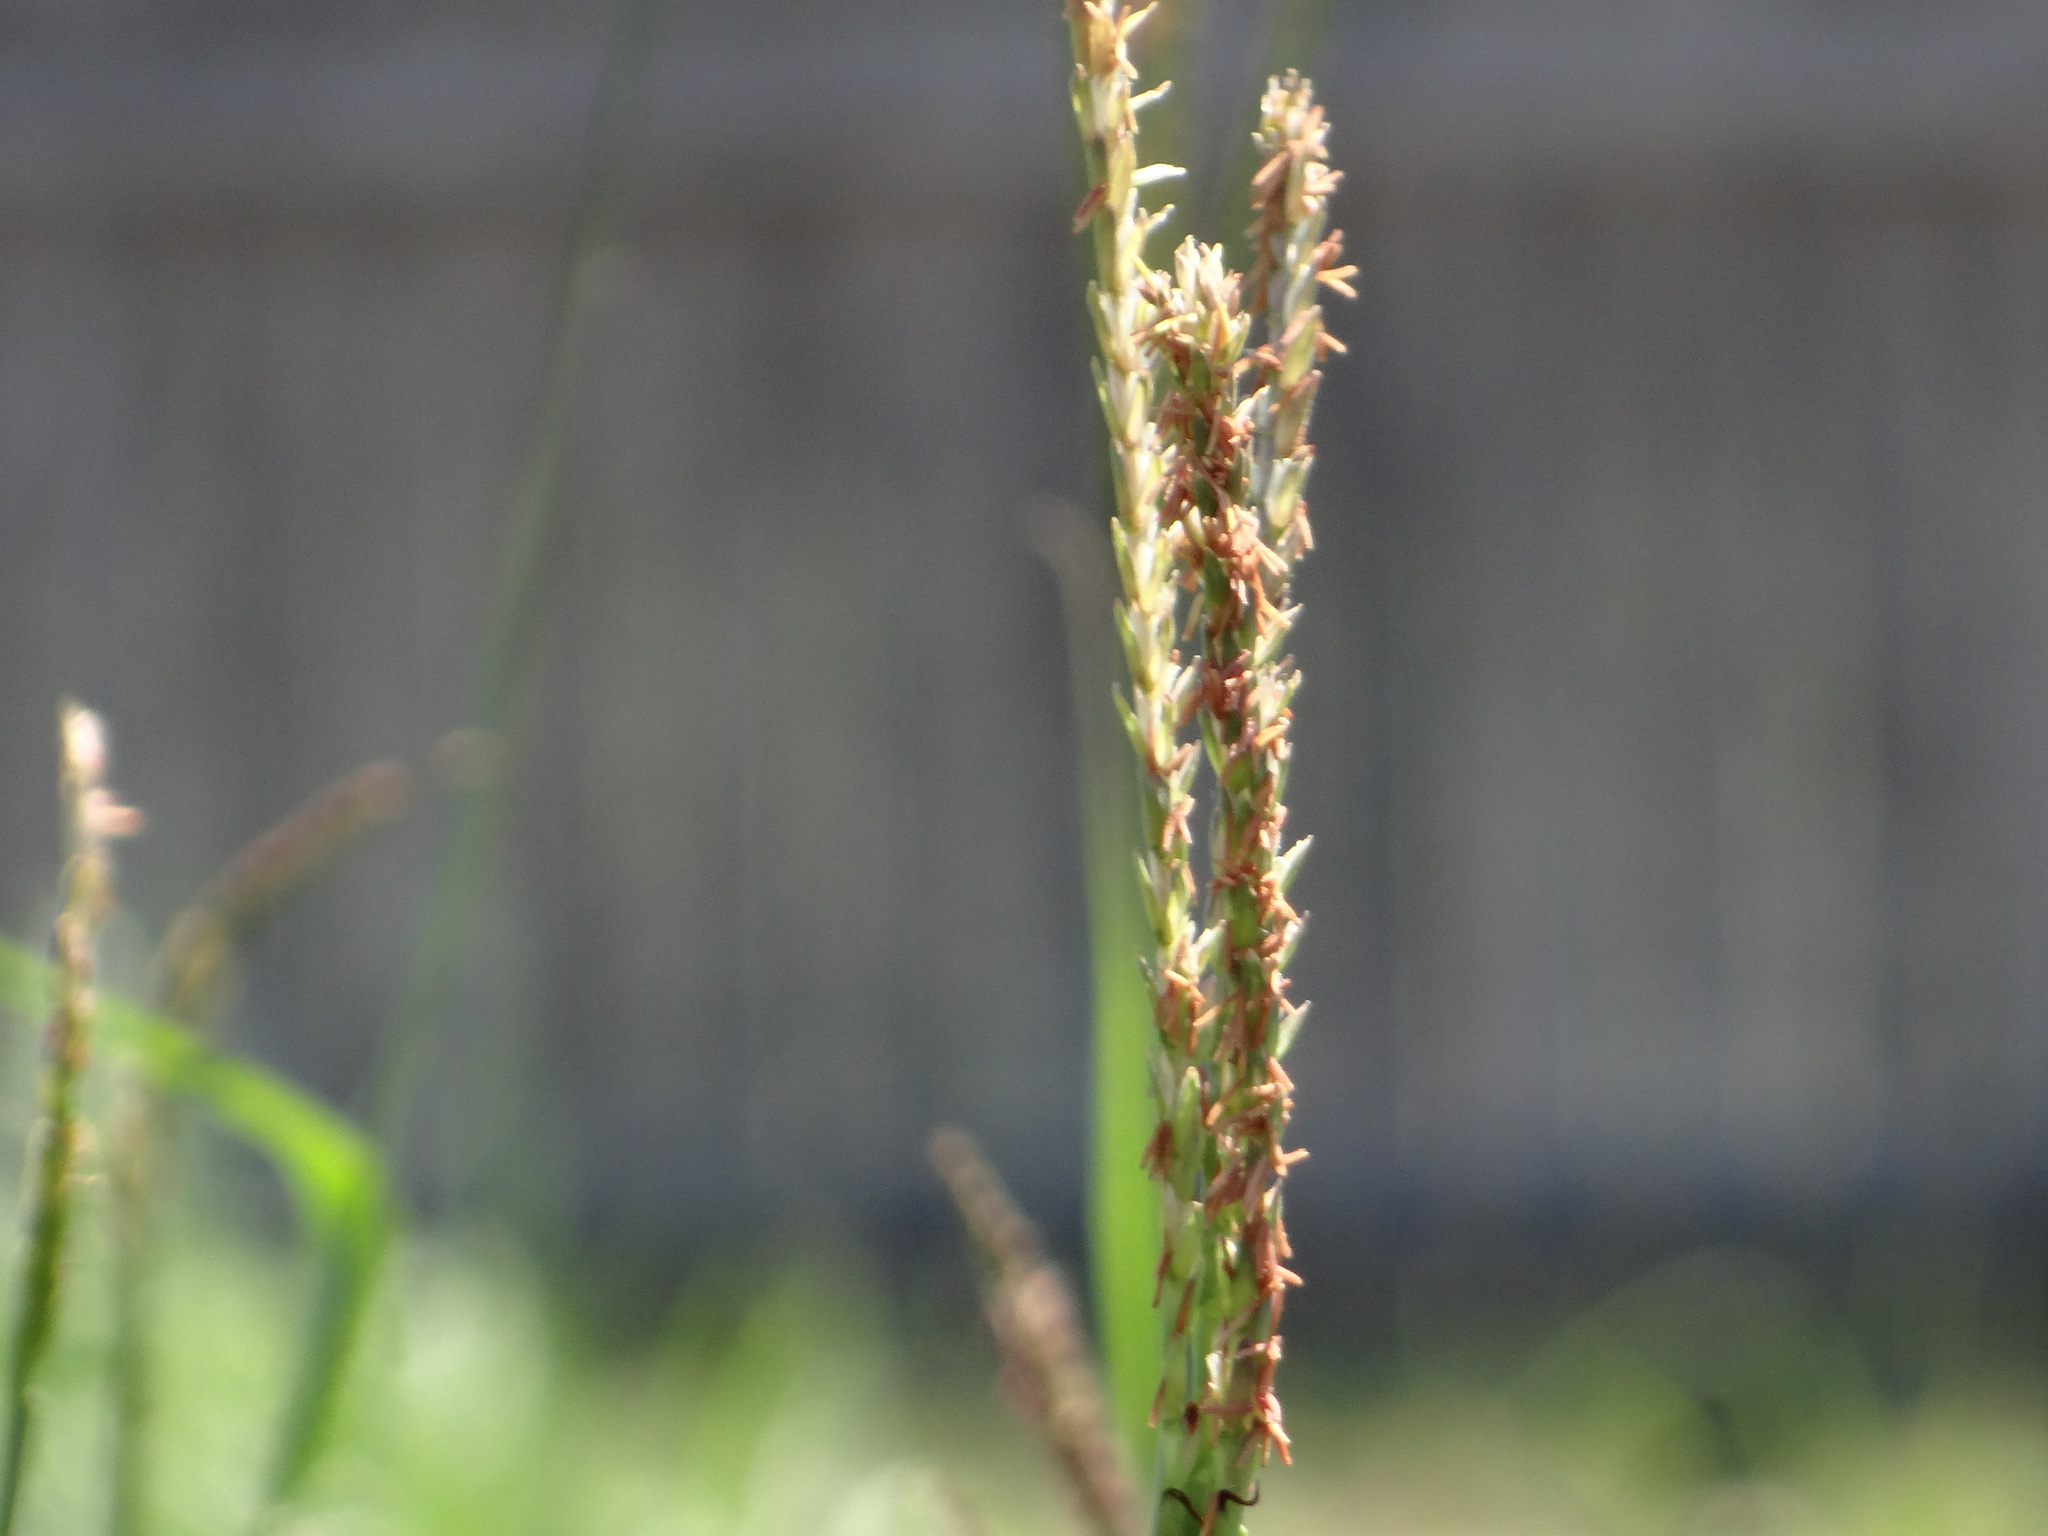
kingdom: Plantae
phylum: Tracheophyta
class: Liliopsida
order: Poales
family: Poaceae
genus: Tripsacum
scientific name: Tripsacum dactyloides
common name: Buffalo-grass
